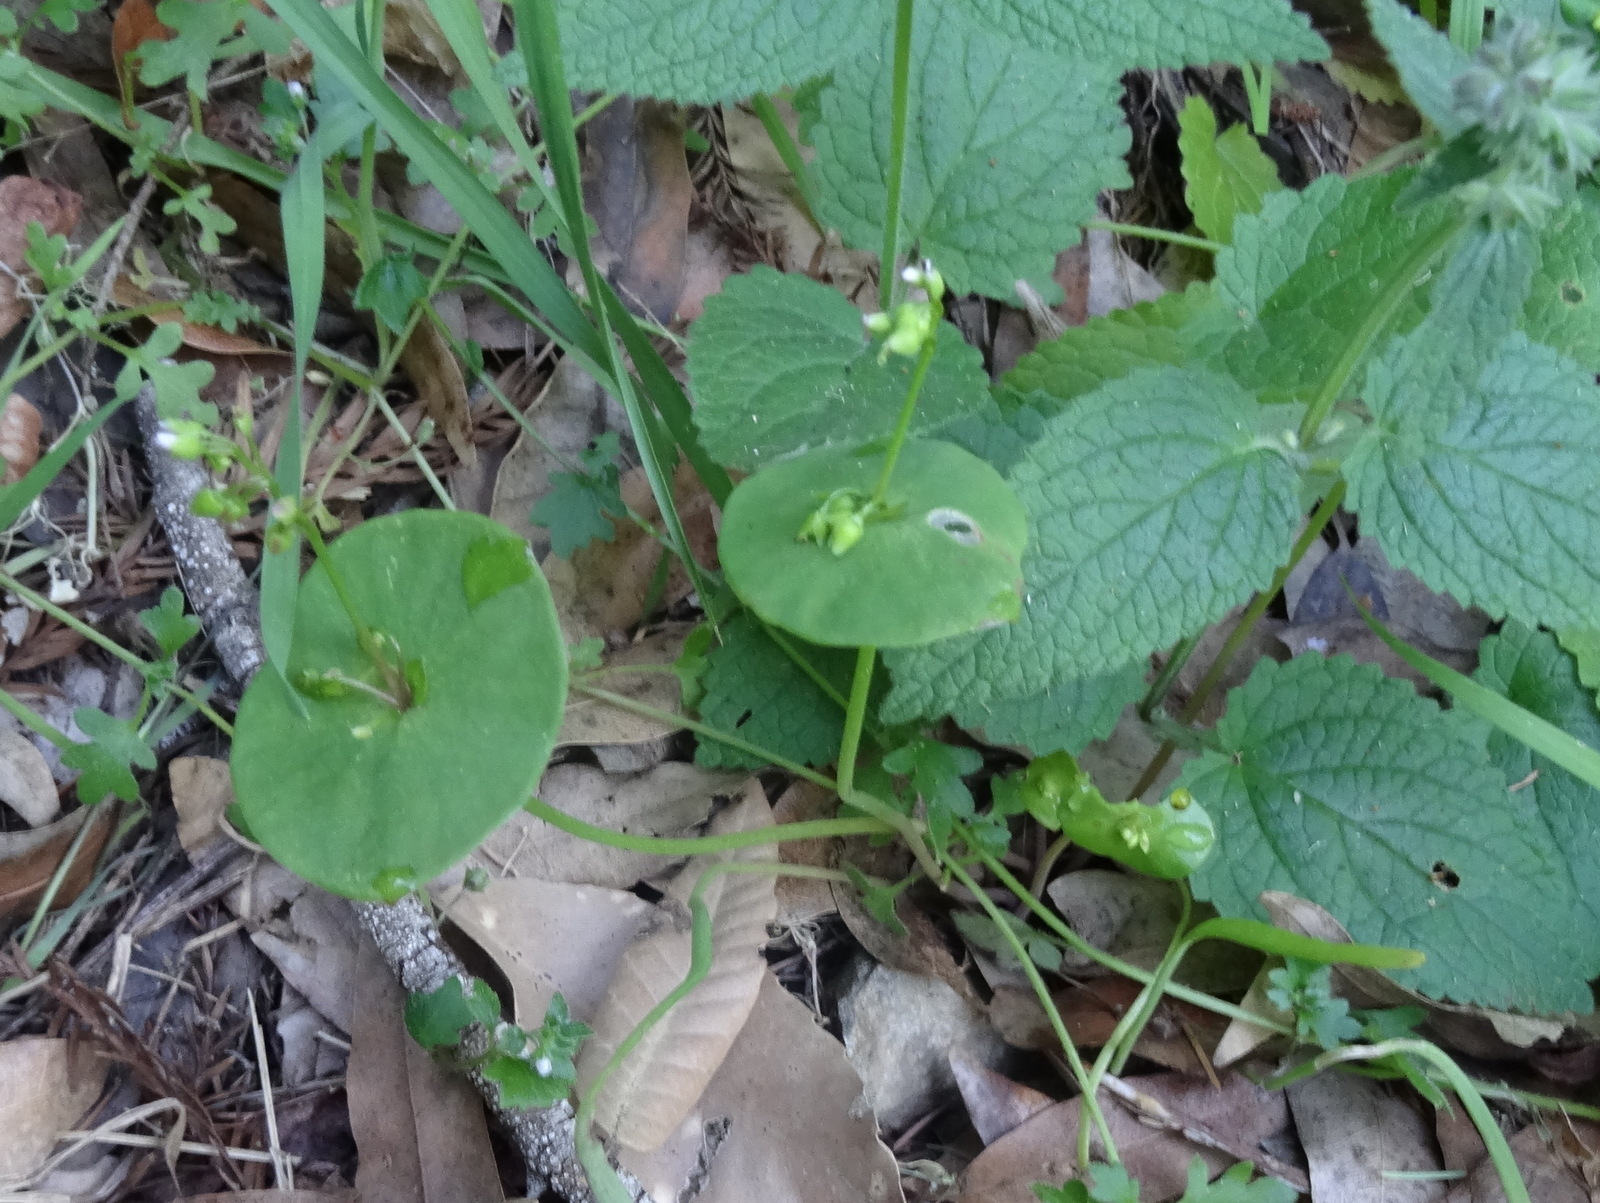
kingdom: Plantae
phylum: Tracheophyta
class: Magnoliopsida
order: Caryophyllales
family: Montiaceae
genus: Claytonia
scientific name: Claytonia perfoliata
